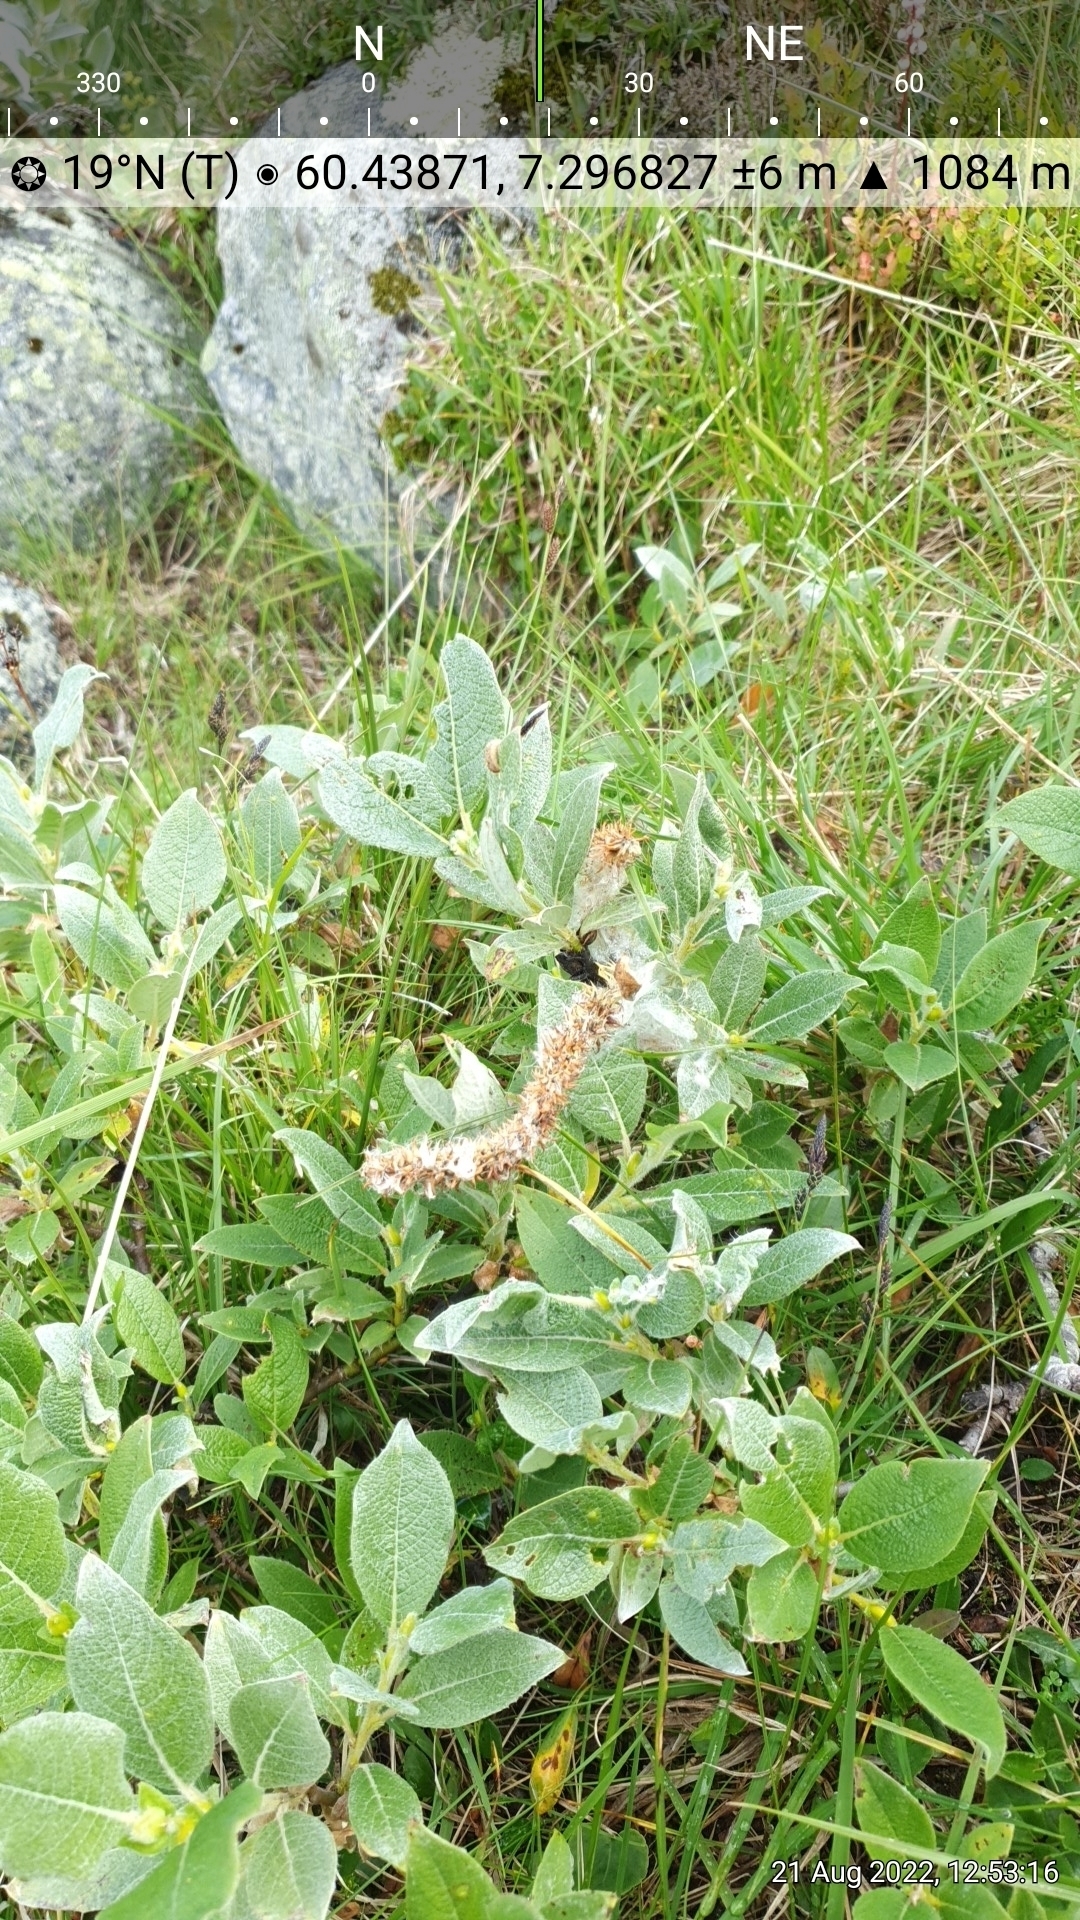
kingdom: Plantae
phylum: Tracheophyta
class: Magnoliopsida
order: Malpighiales
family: Salicaceae
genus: Salix
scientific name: Salix lanata
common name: Woolly willow
